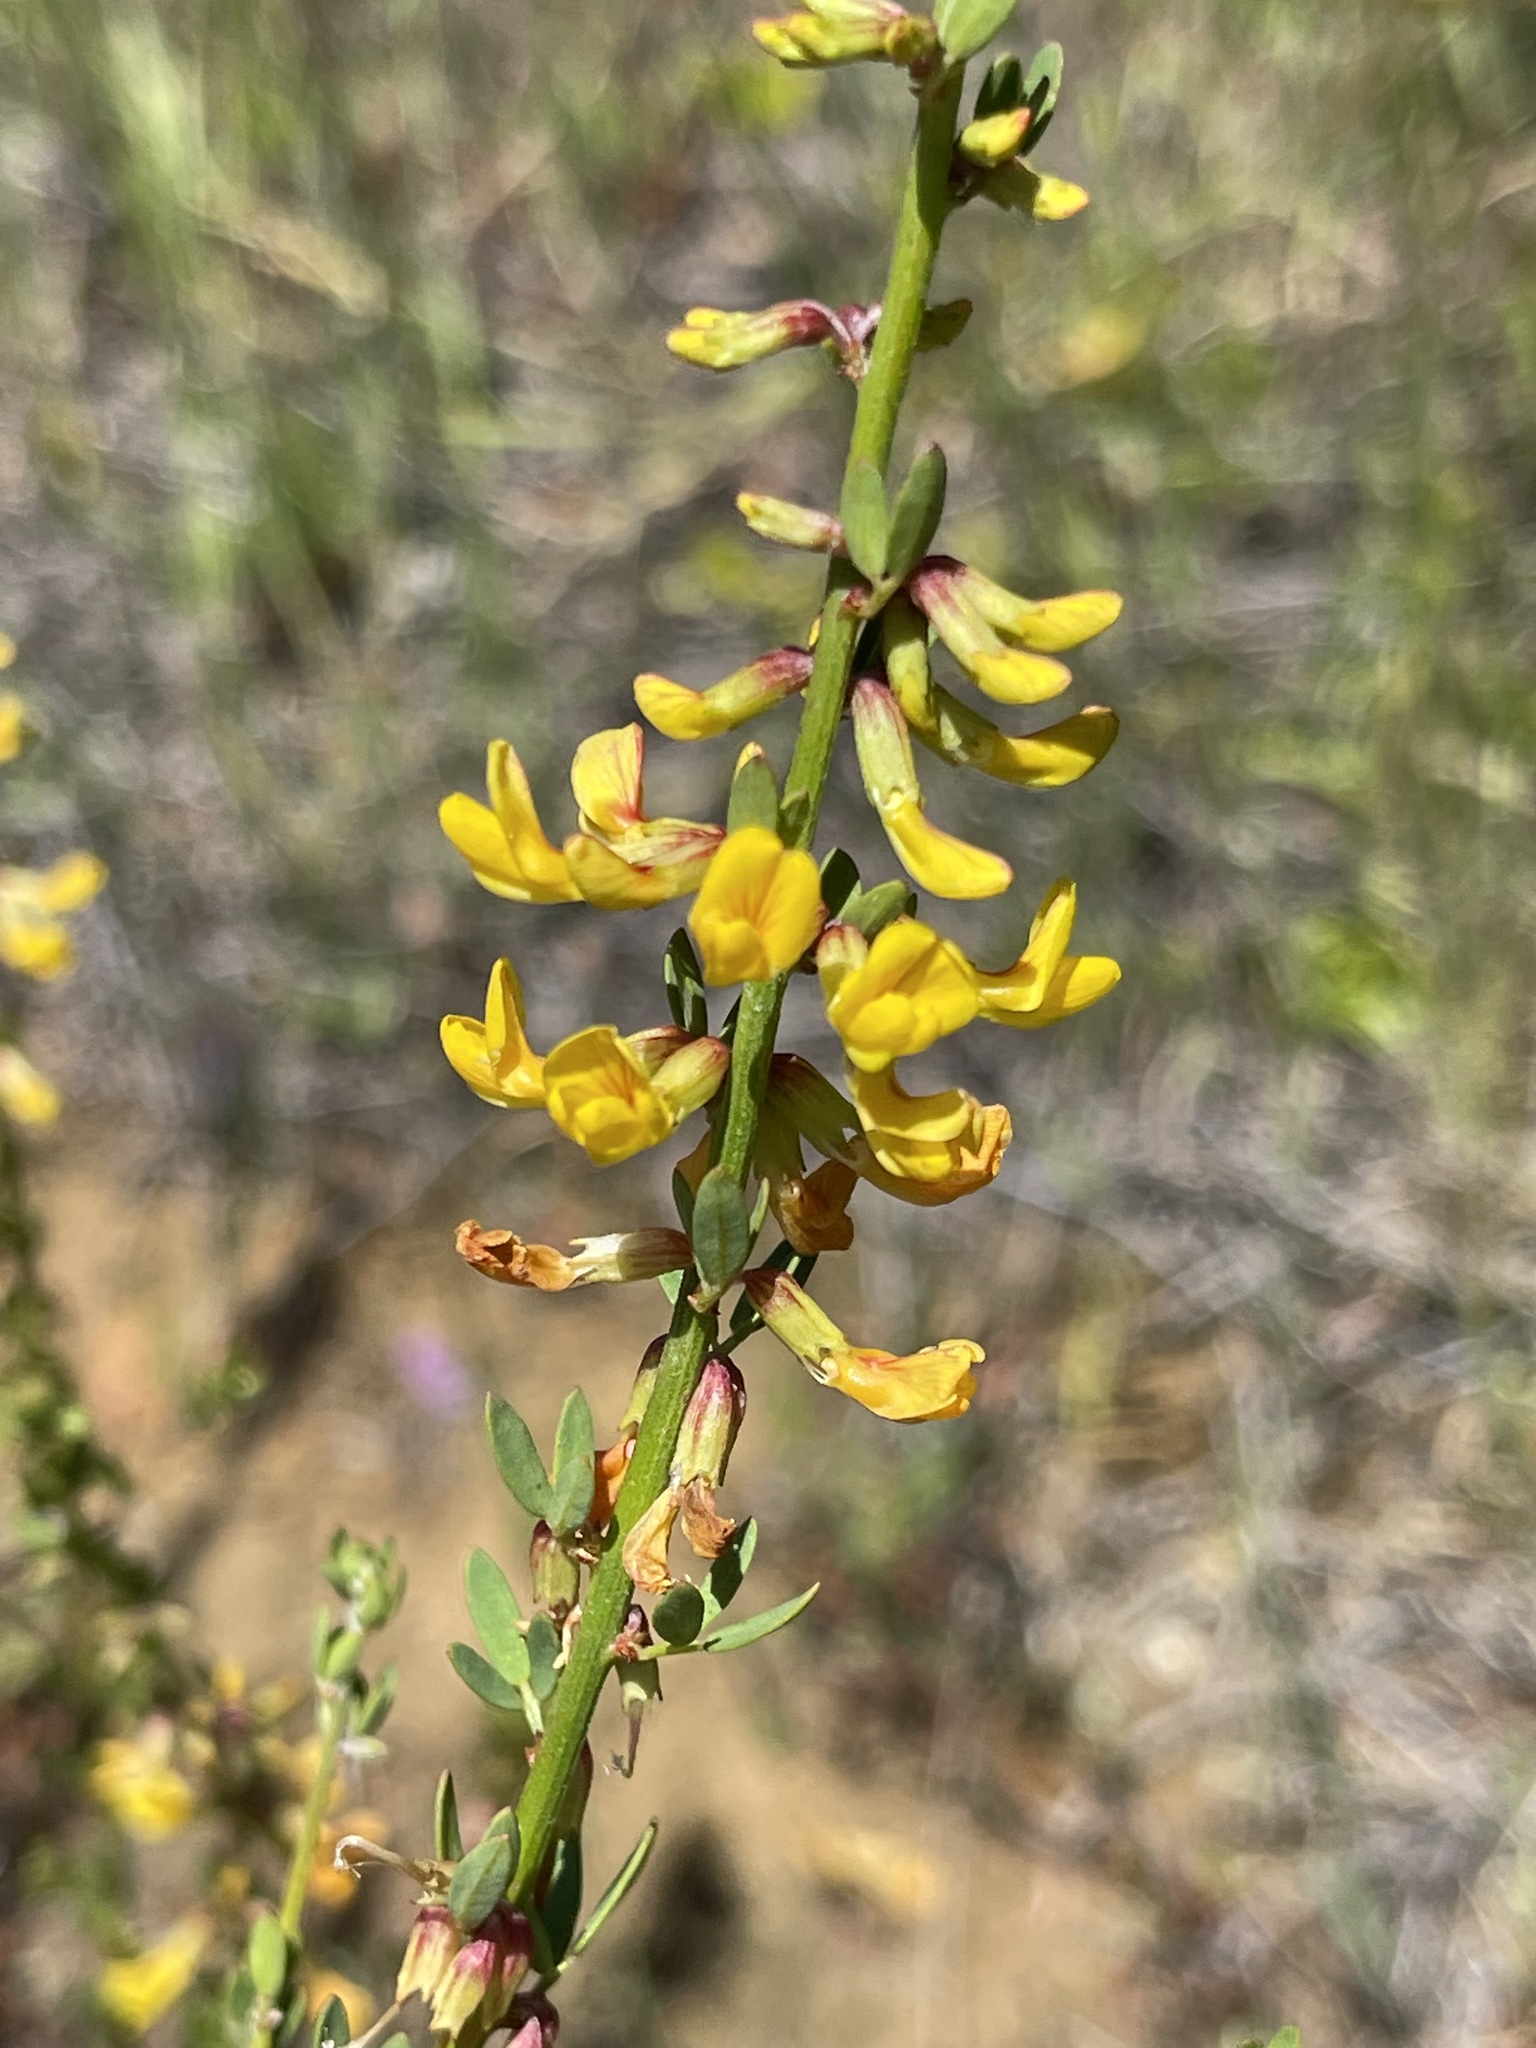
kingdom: Plantae
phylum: Tracheophyta
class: Magnoliopsida
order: Fabales
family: Fabaceae
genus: Acmispon
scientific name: Acmispon glaber
